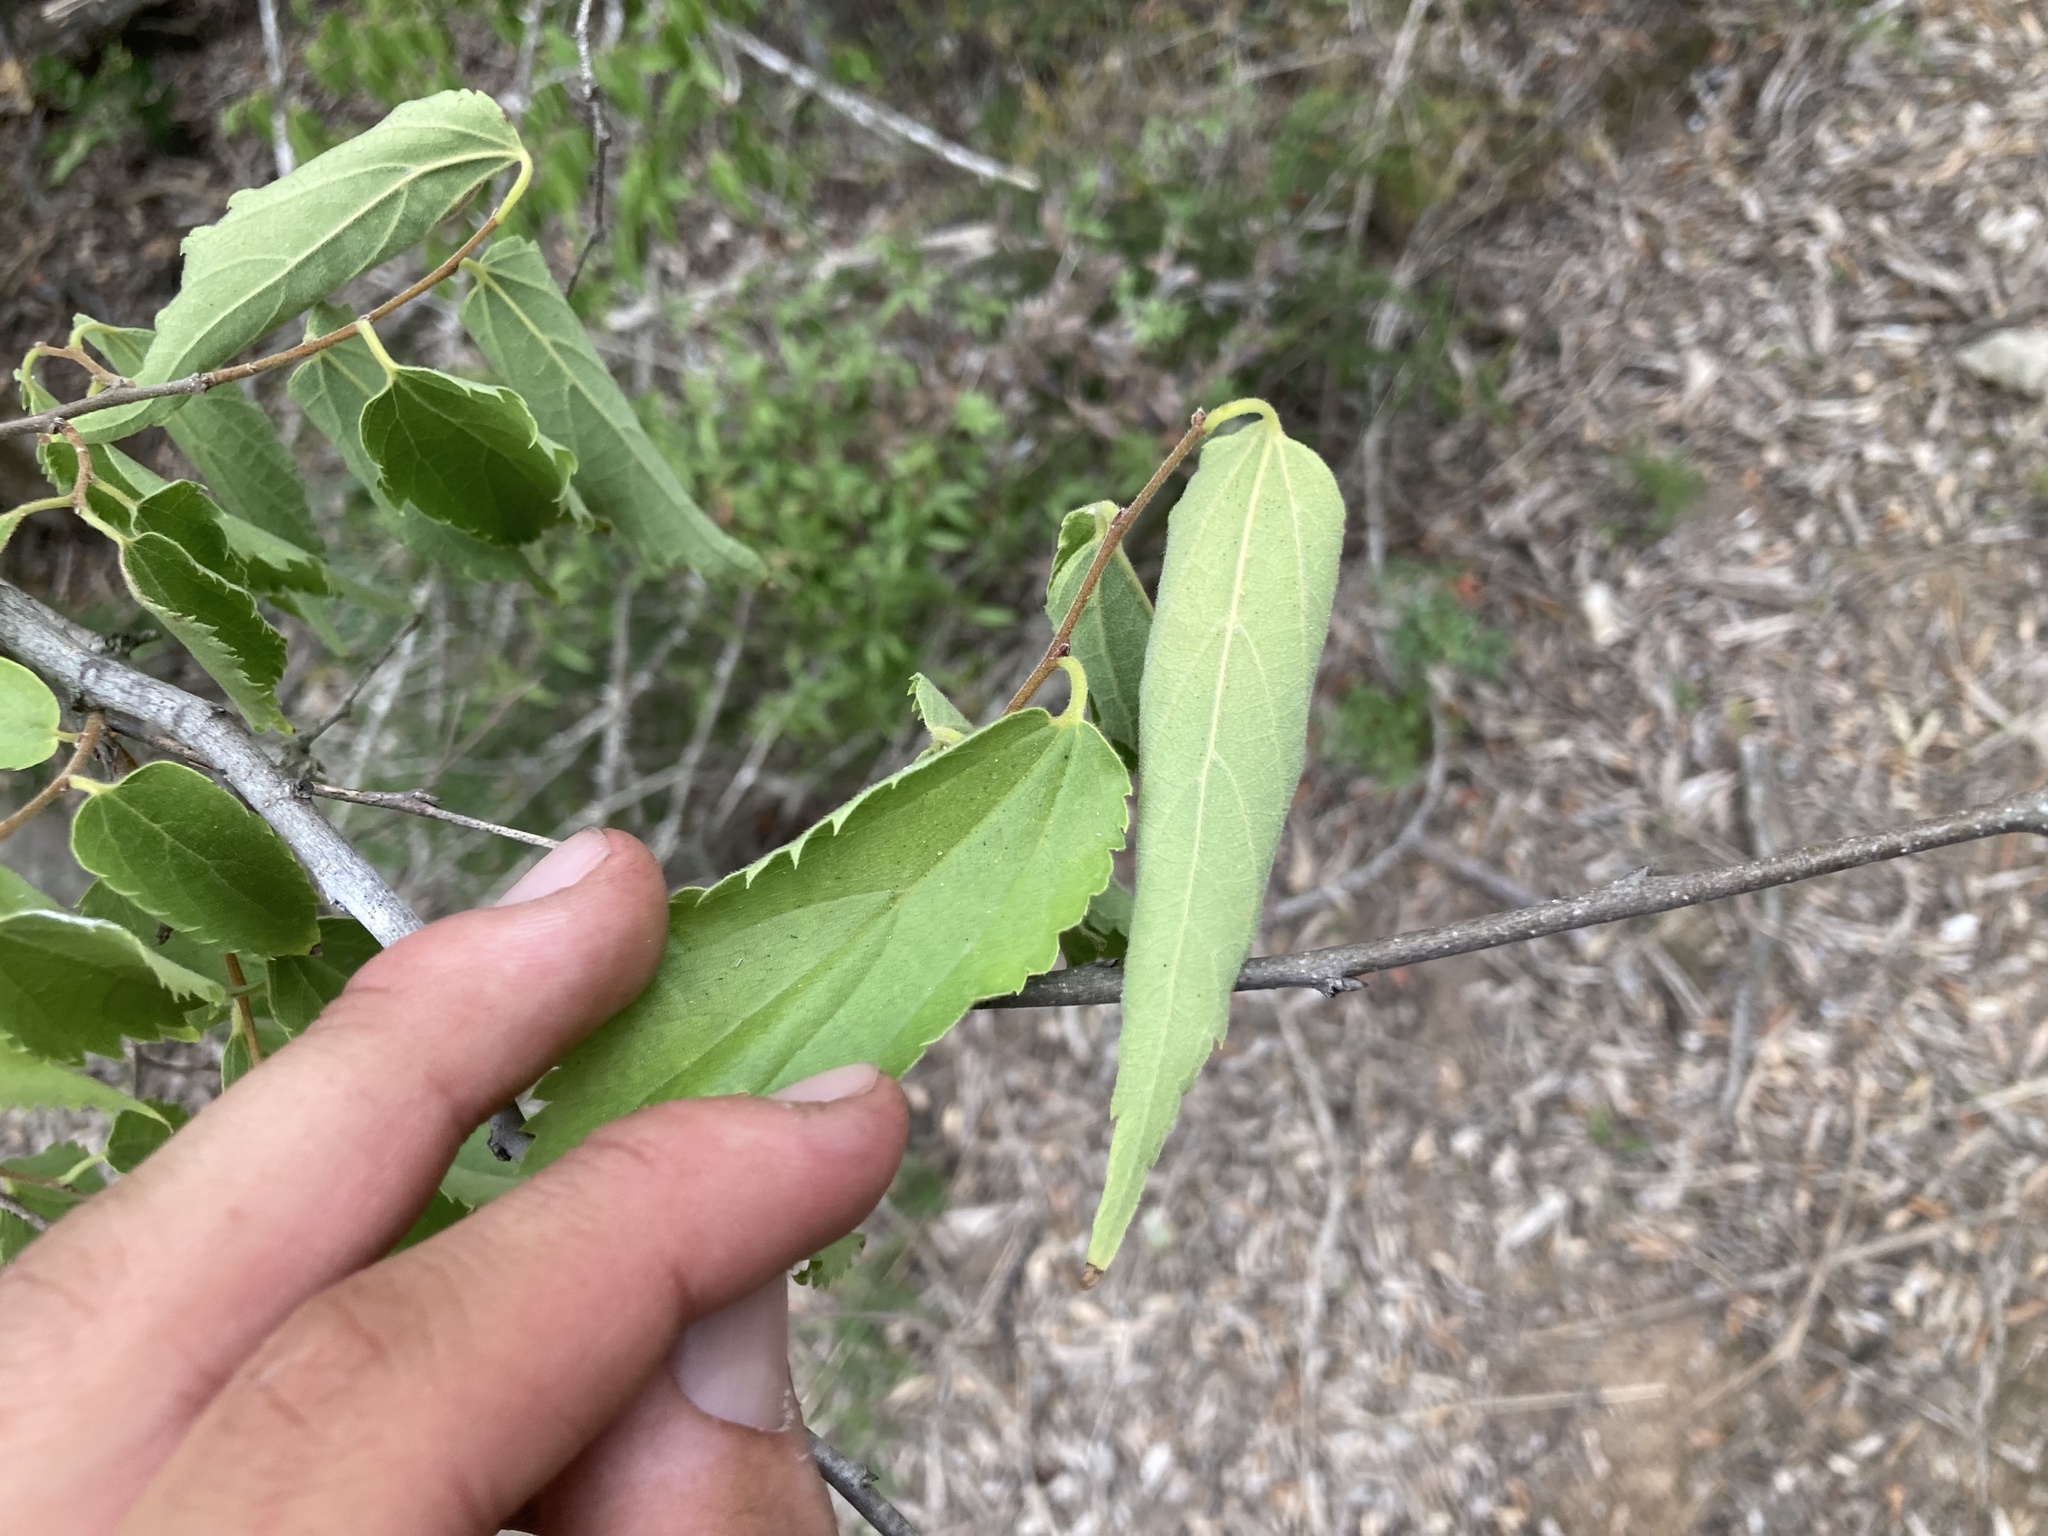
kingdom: Plantae
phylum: Tracheophyta
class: Magnoliopsida
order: Rosales
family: Cannabaceae
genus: Celtis
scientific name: Celtis australis
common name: European hackberry
